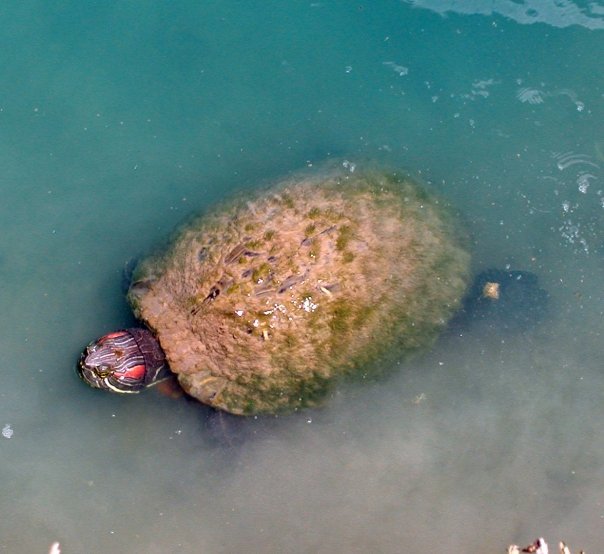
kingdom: Animalia
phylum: Chordata
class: Testudines
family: Emydidae
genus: Trachemys
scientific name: Trachemys scripta
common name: Slider
